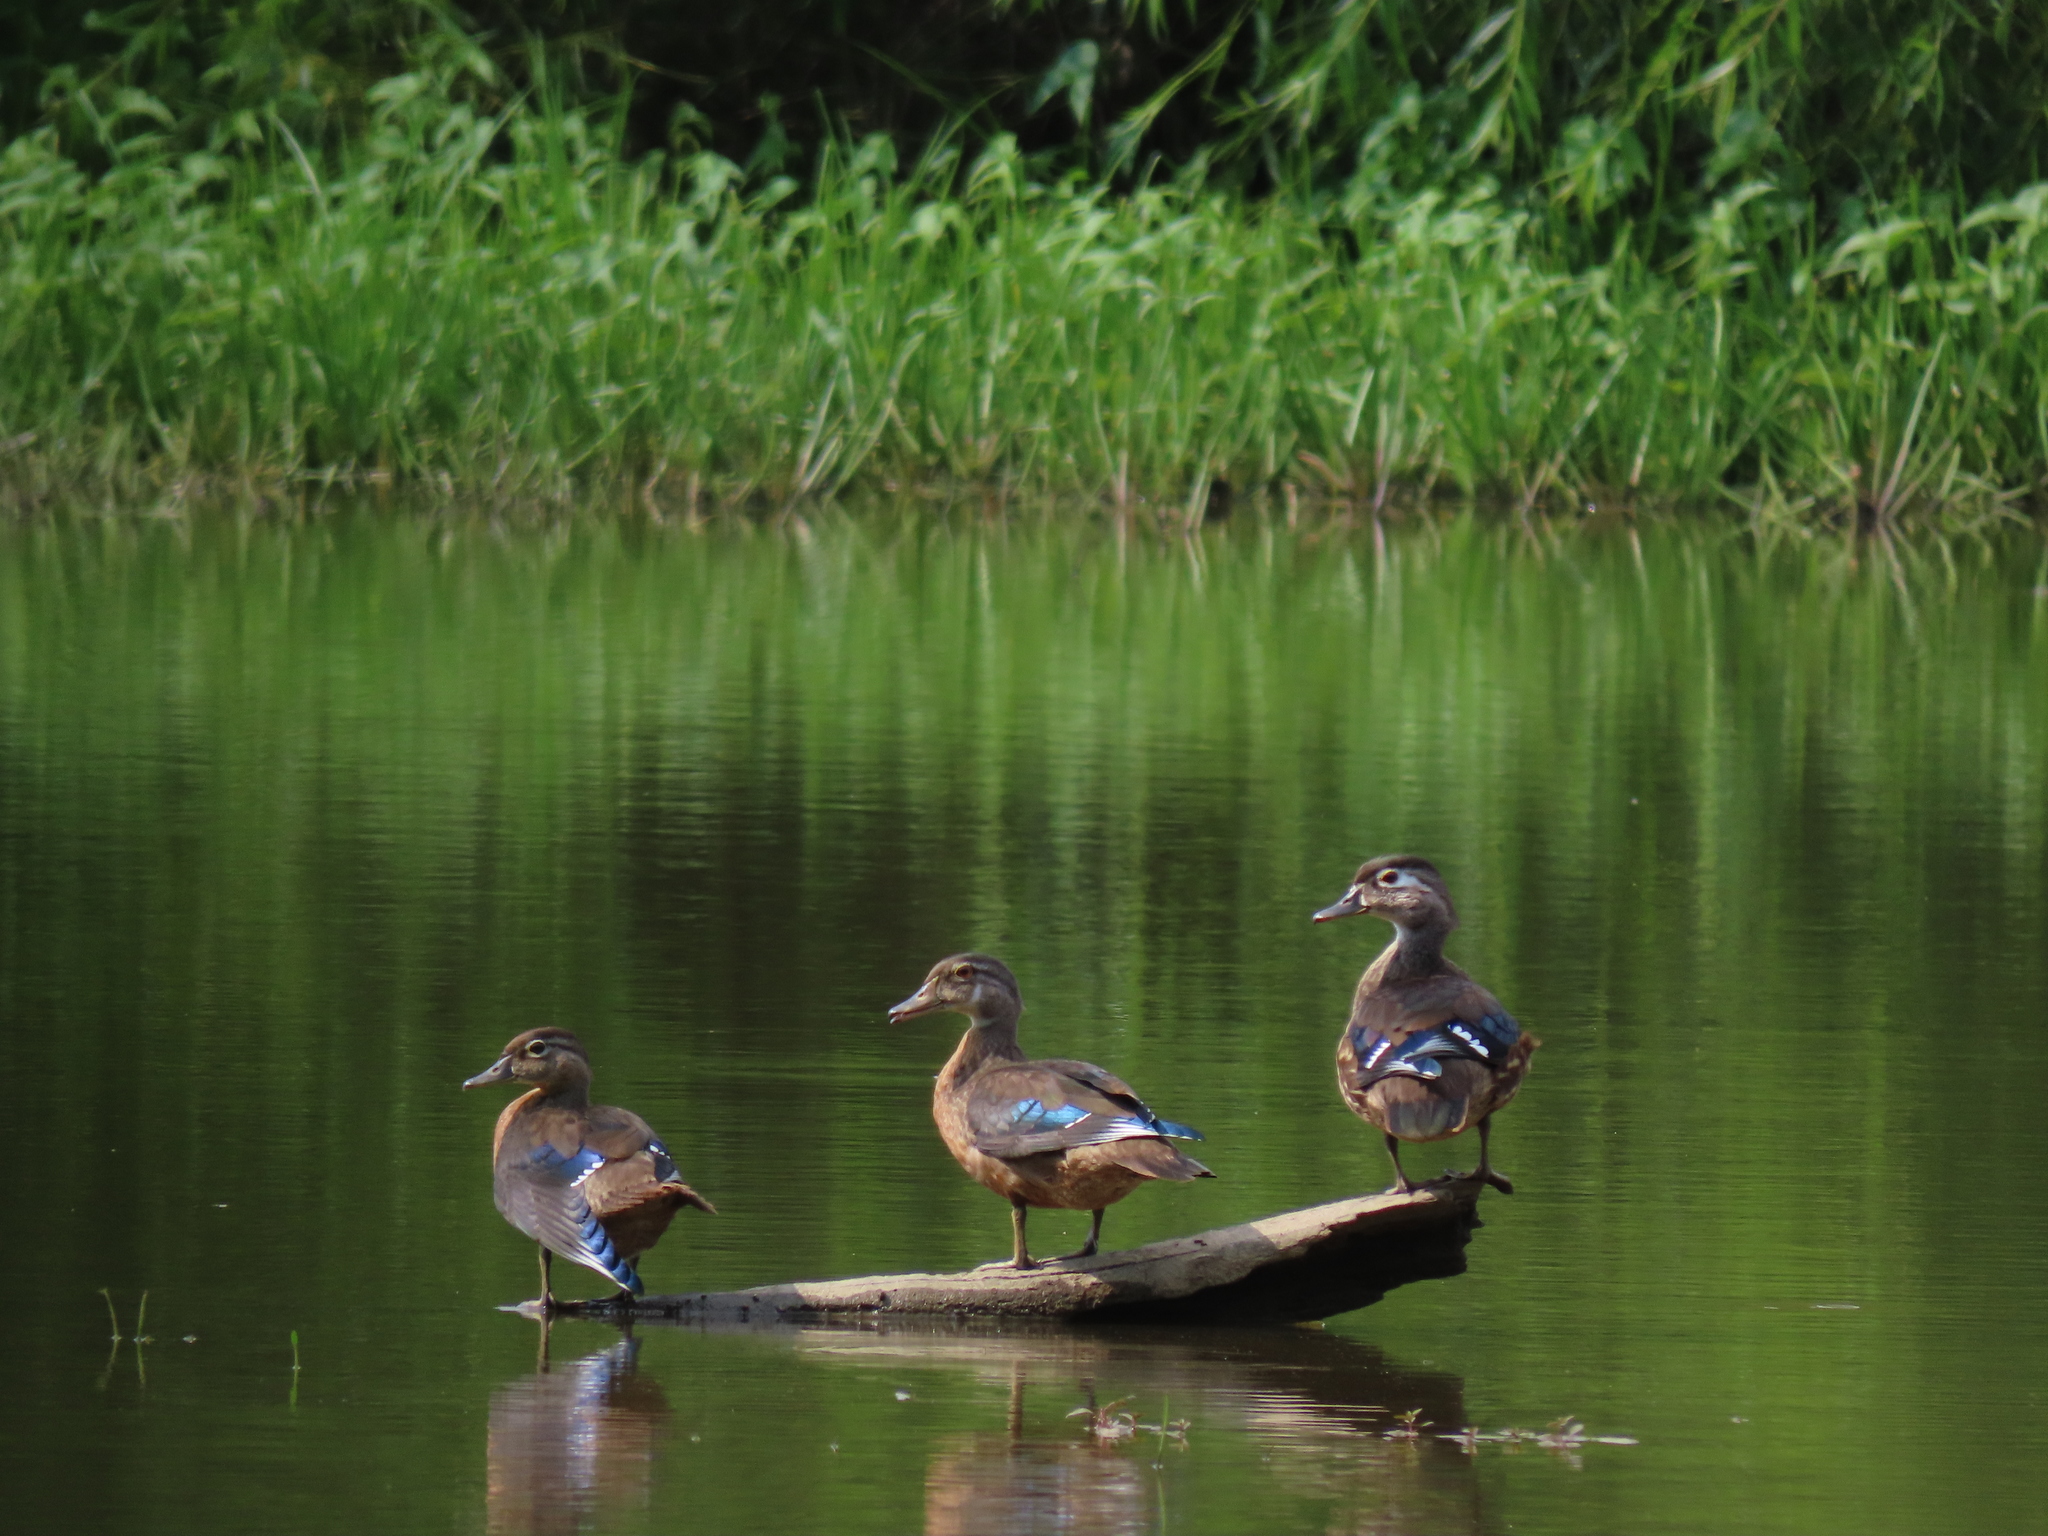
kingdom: Animalia
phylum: Chordata
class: Aves
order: Anseriformes
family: Anatidae
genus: Aix
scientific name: Aix sponsa
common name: Wood duck
